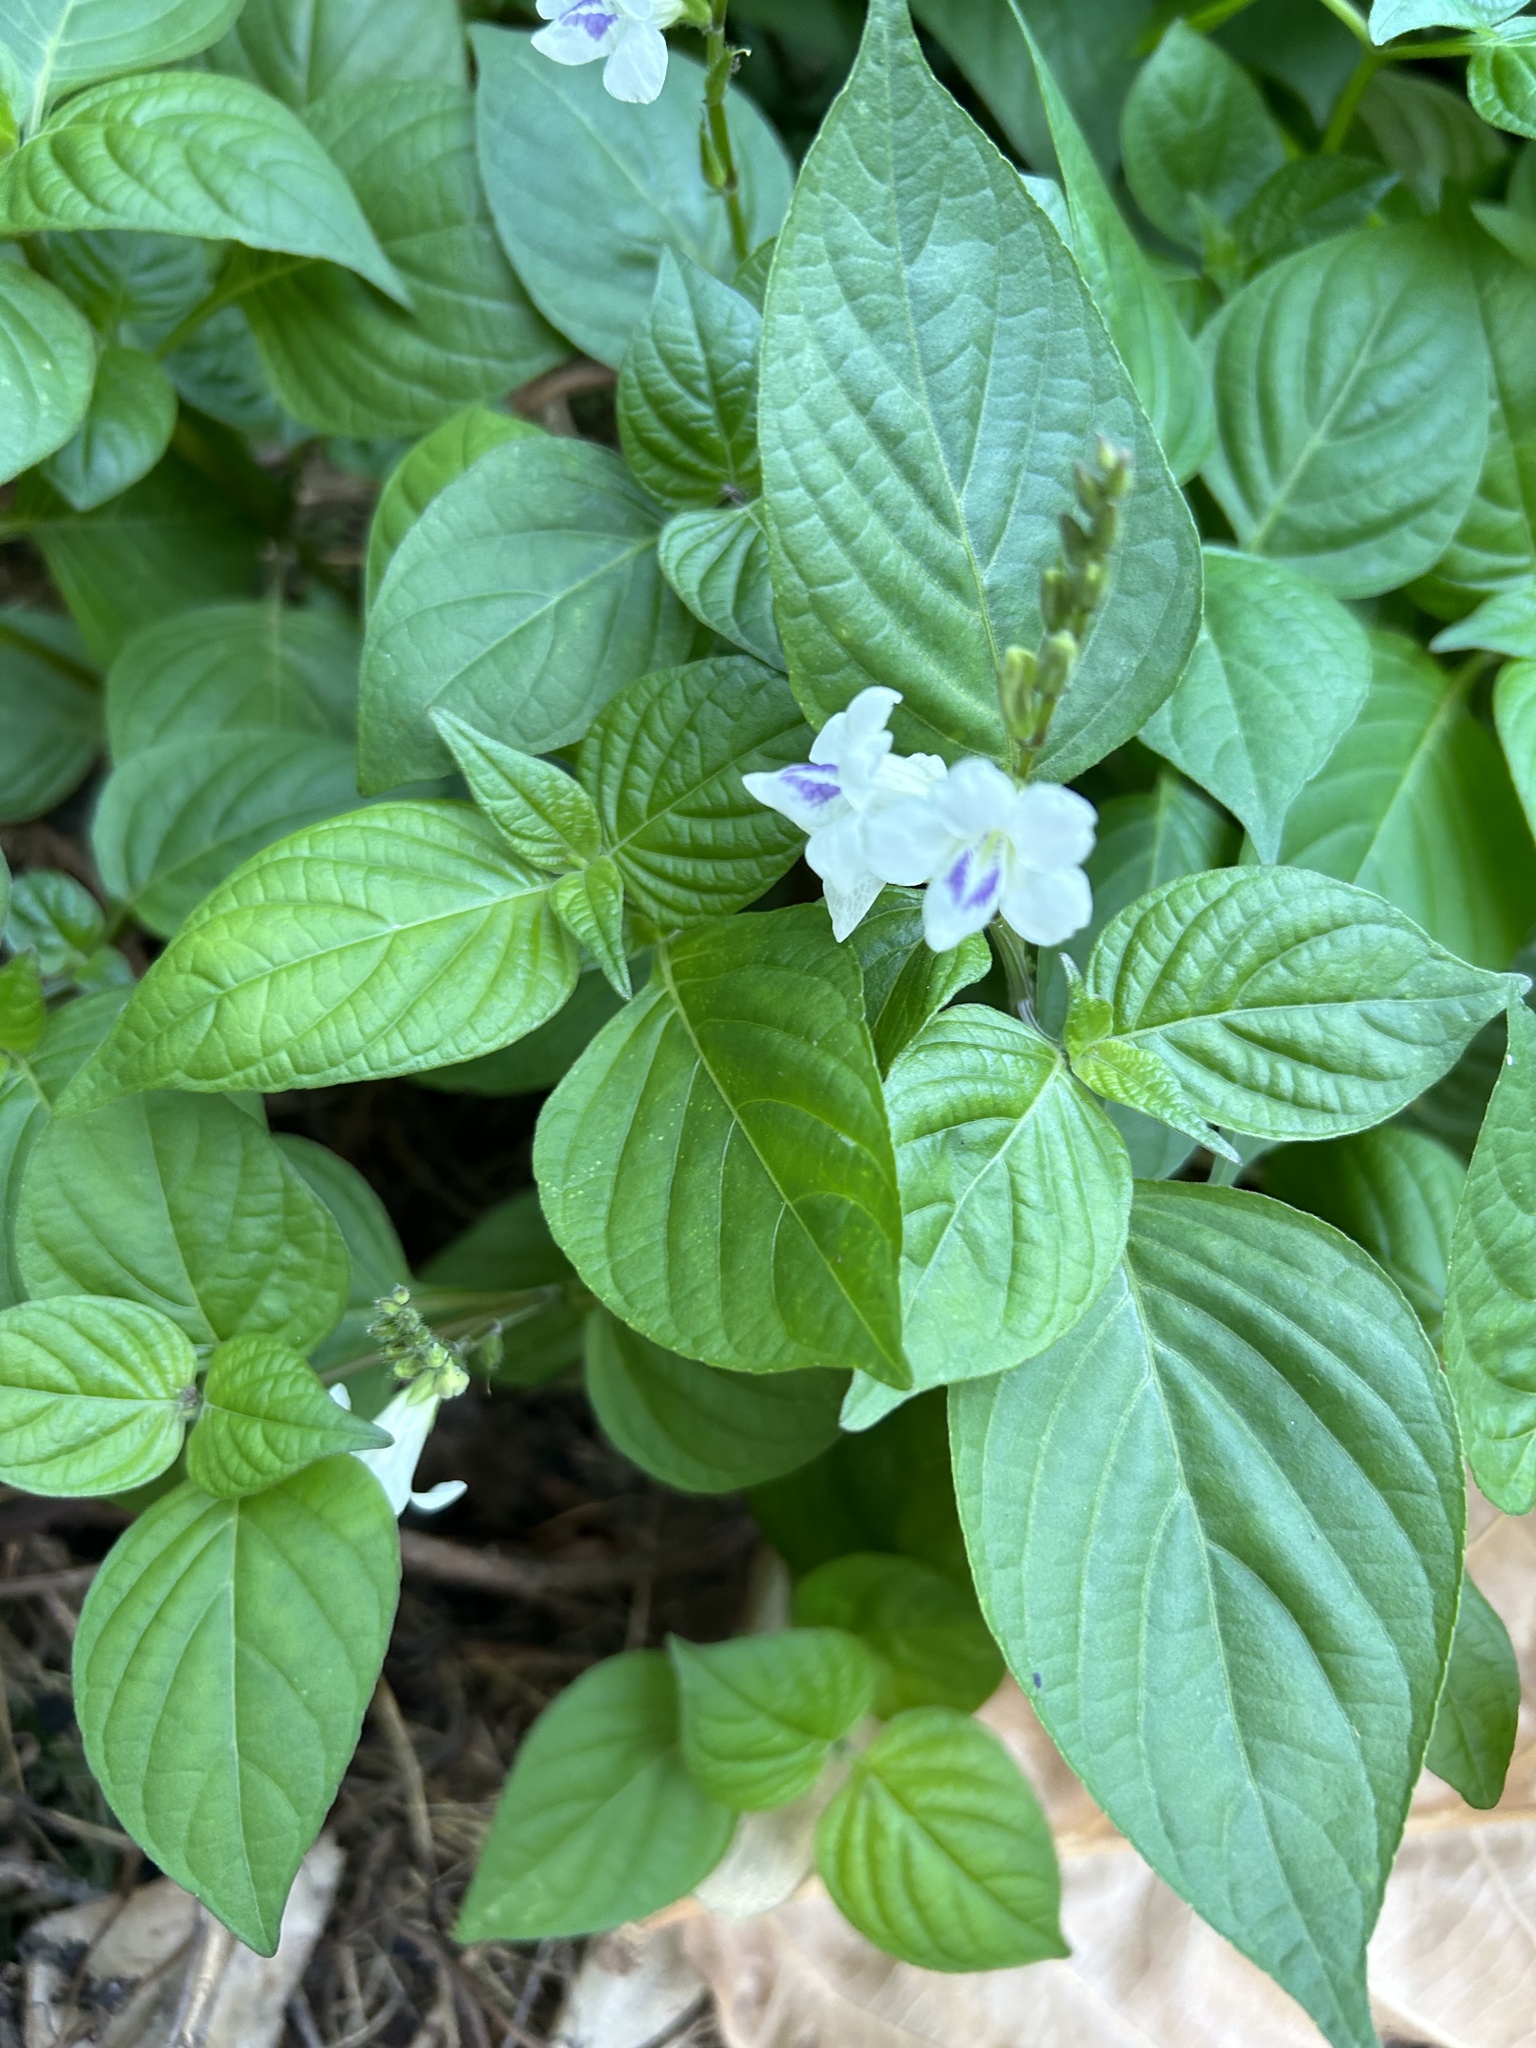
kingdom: Plantae
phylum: Tracheophyta
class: Magnoliopsida
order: Lamiales
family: Acanthaceae
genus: Asystasia
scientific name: Asystasia intrusa
